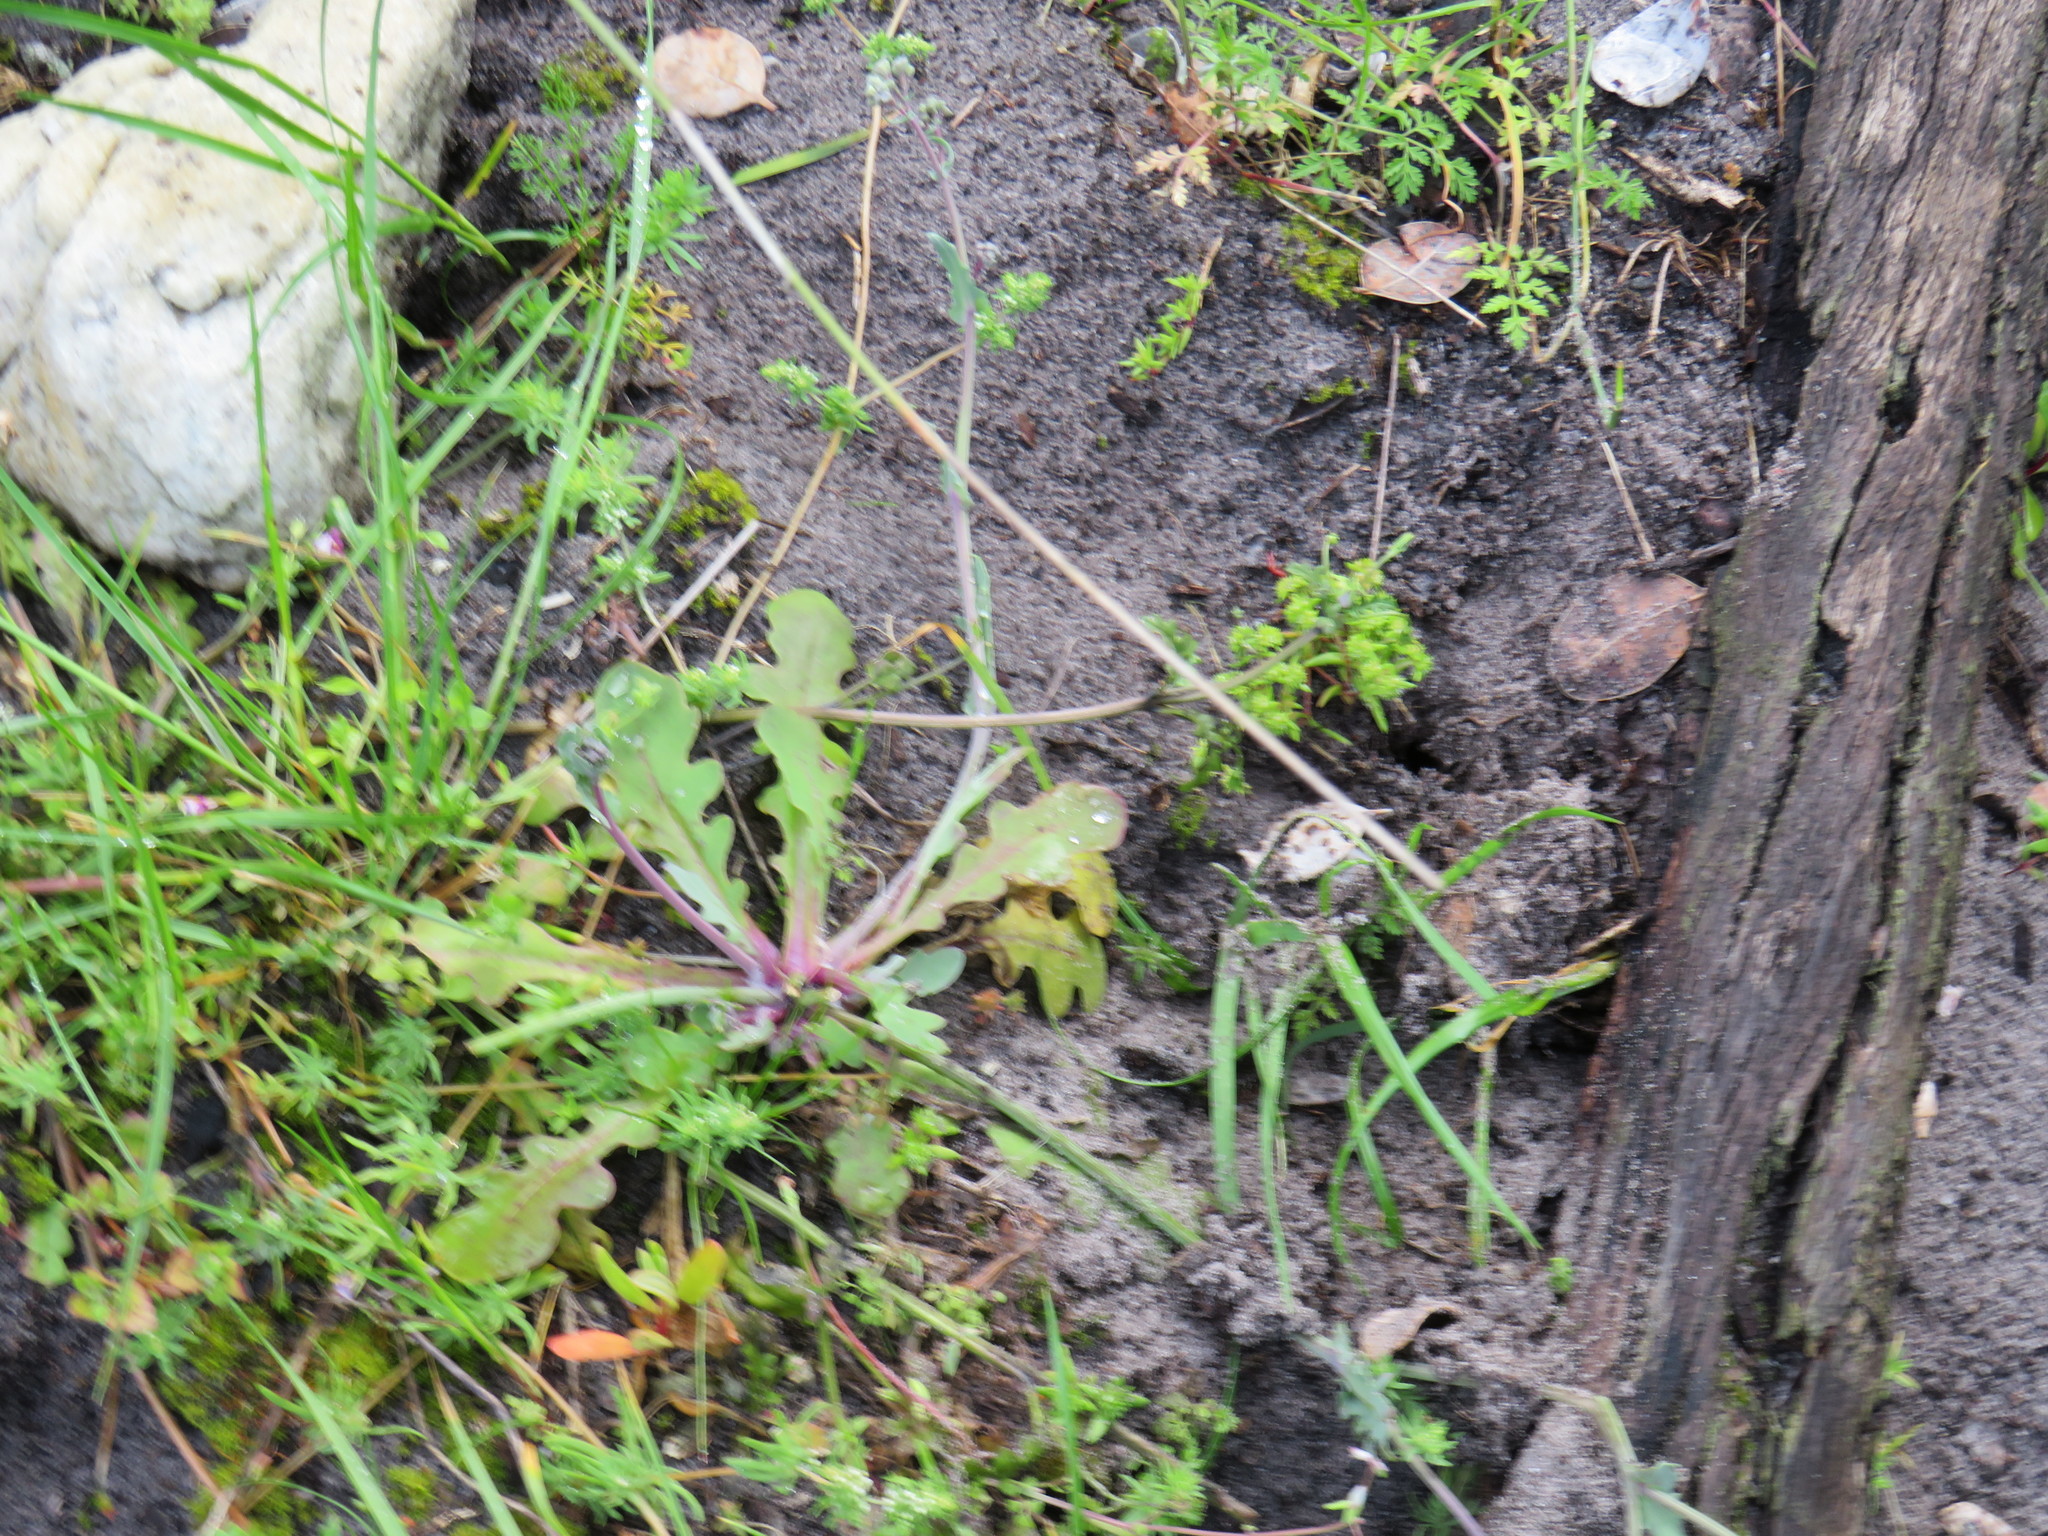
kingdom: Plantae
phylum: Tracheophyta
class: Magnoliopsida
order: Asterales
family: Asteraceae
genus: Gymnodiscus
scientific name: Gymnodiscus capillaris
